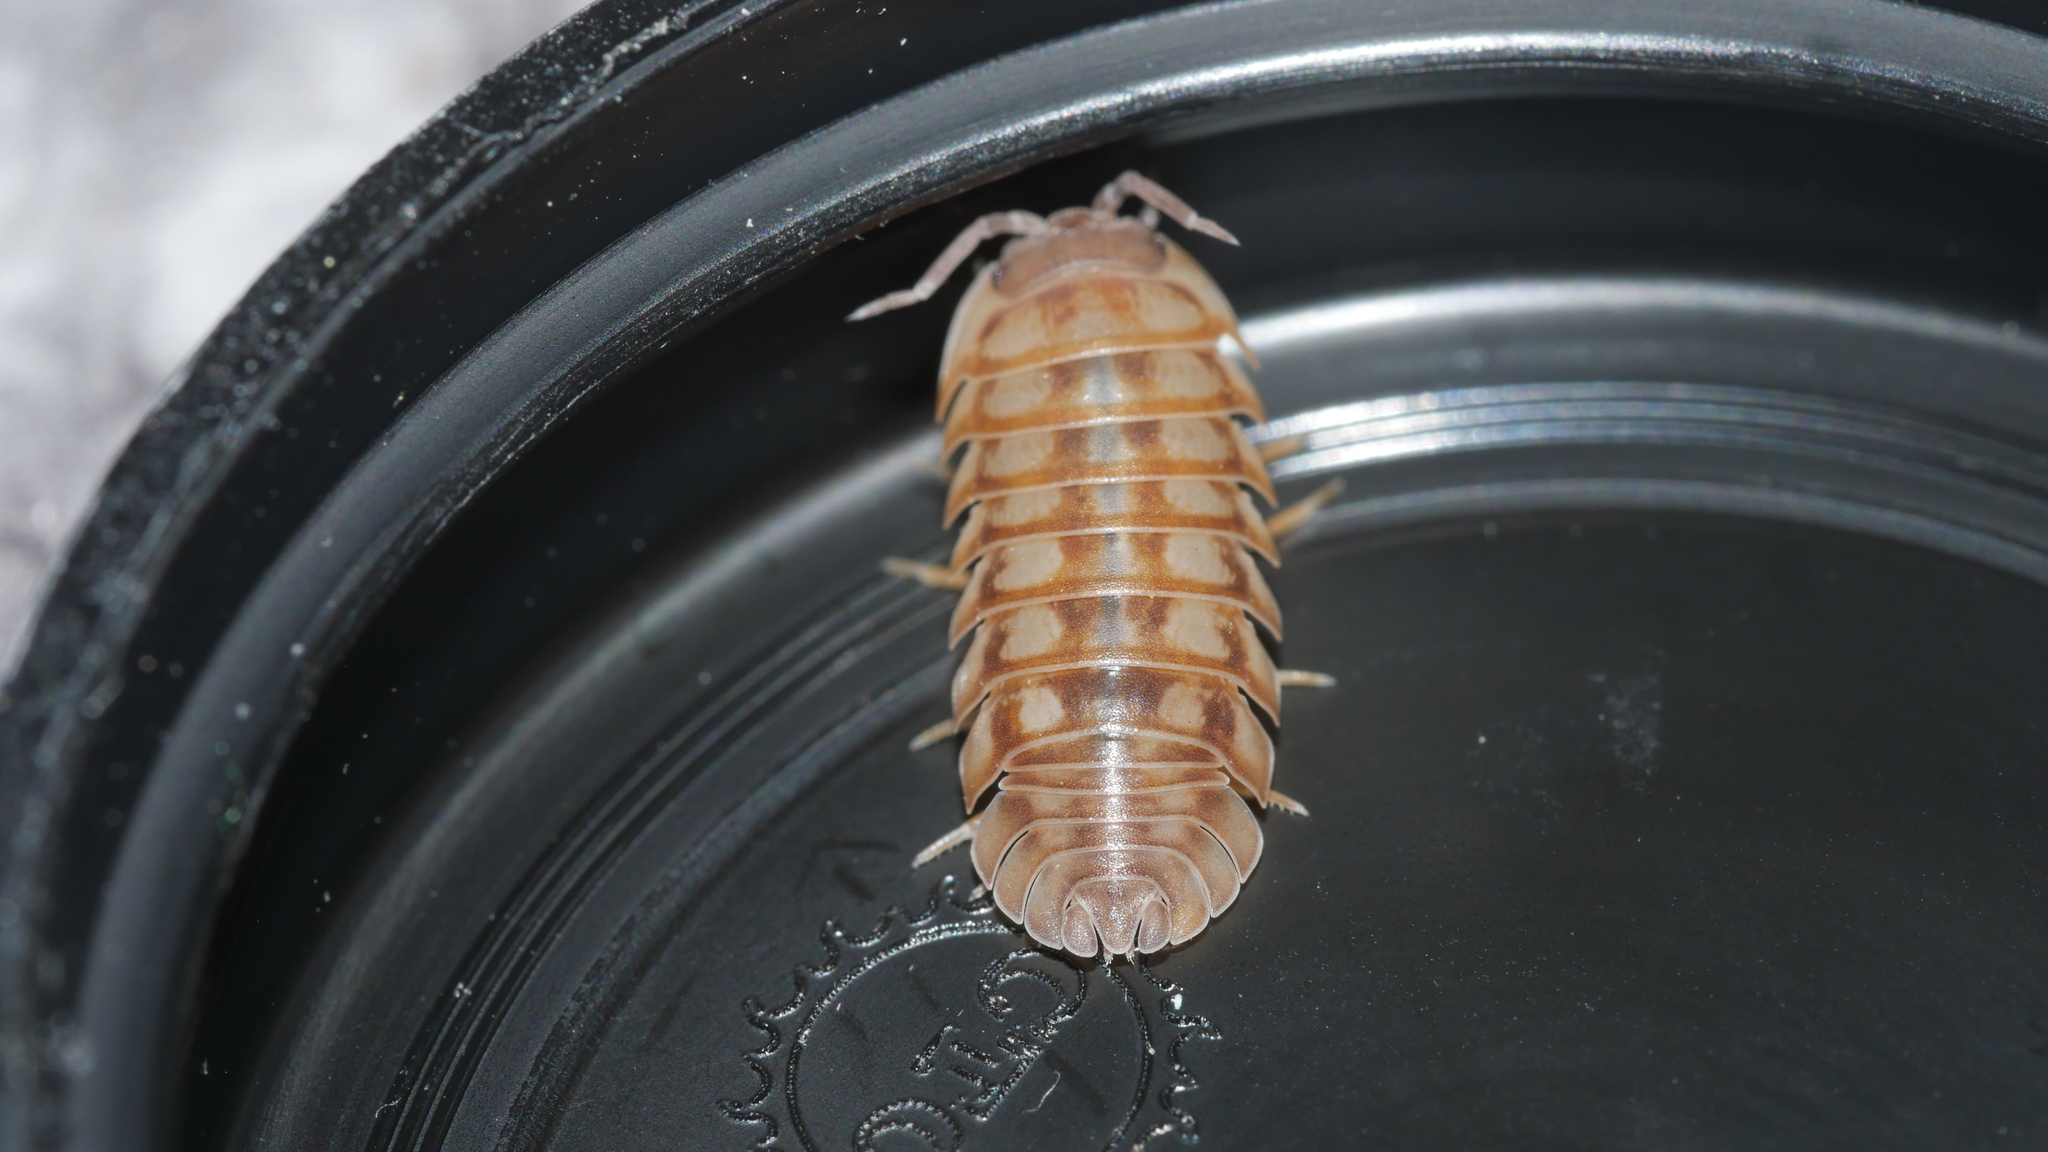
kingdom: Animalia
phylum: Arthropoda
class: Malacostraca
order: Isopoda
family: Armadillidiidae
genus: Armadillidium
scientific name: Armadillidium nasatum
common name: Isopod
